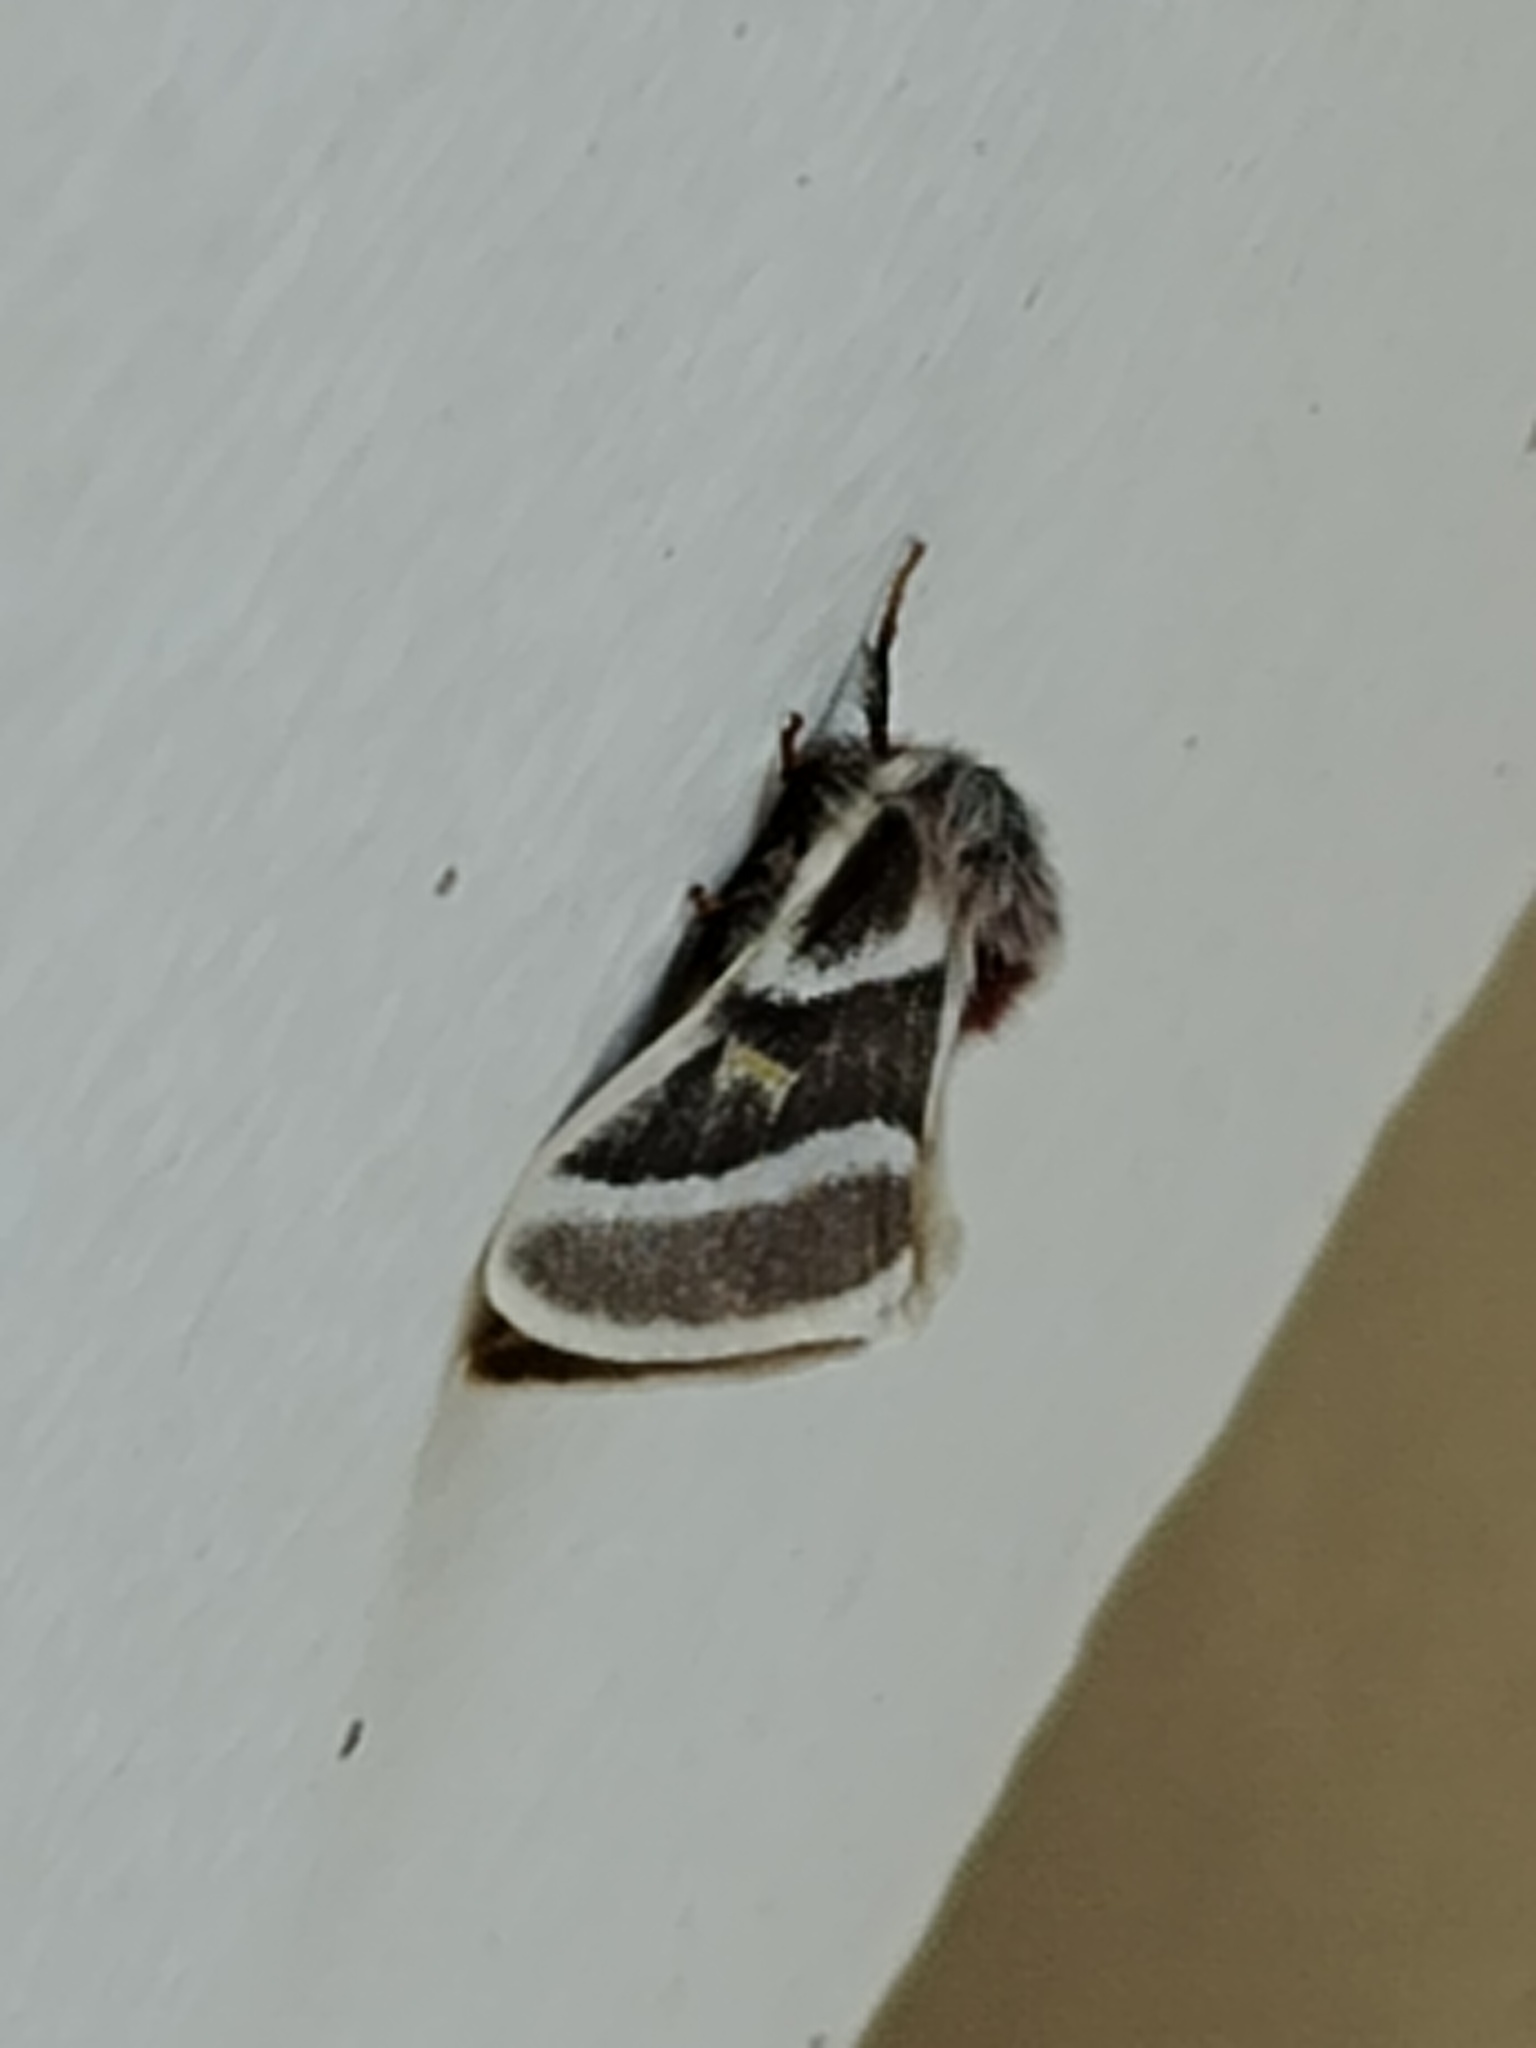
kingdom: Animalia
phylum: Arthropoda
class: Insecta
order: Lepidoptera
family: Saturniidae
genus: Hemileuca
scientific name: Hemileuca tricolor
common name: Tricolor buckmoth
